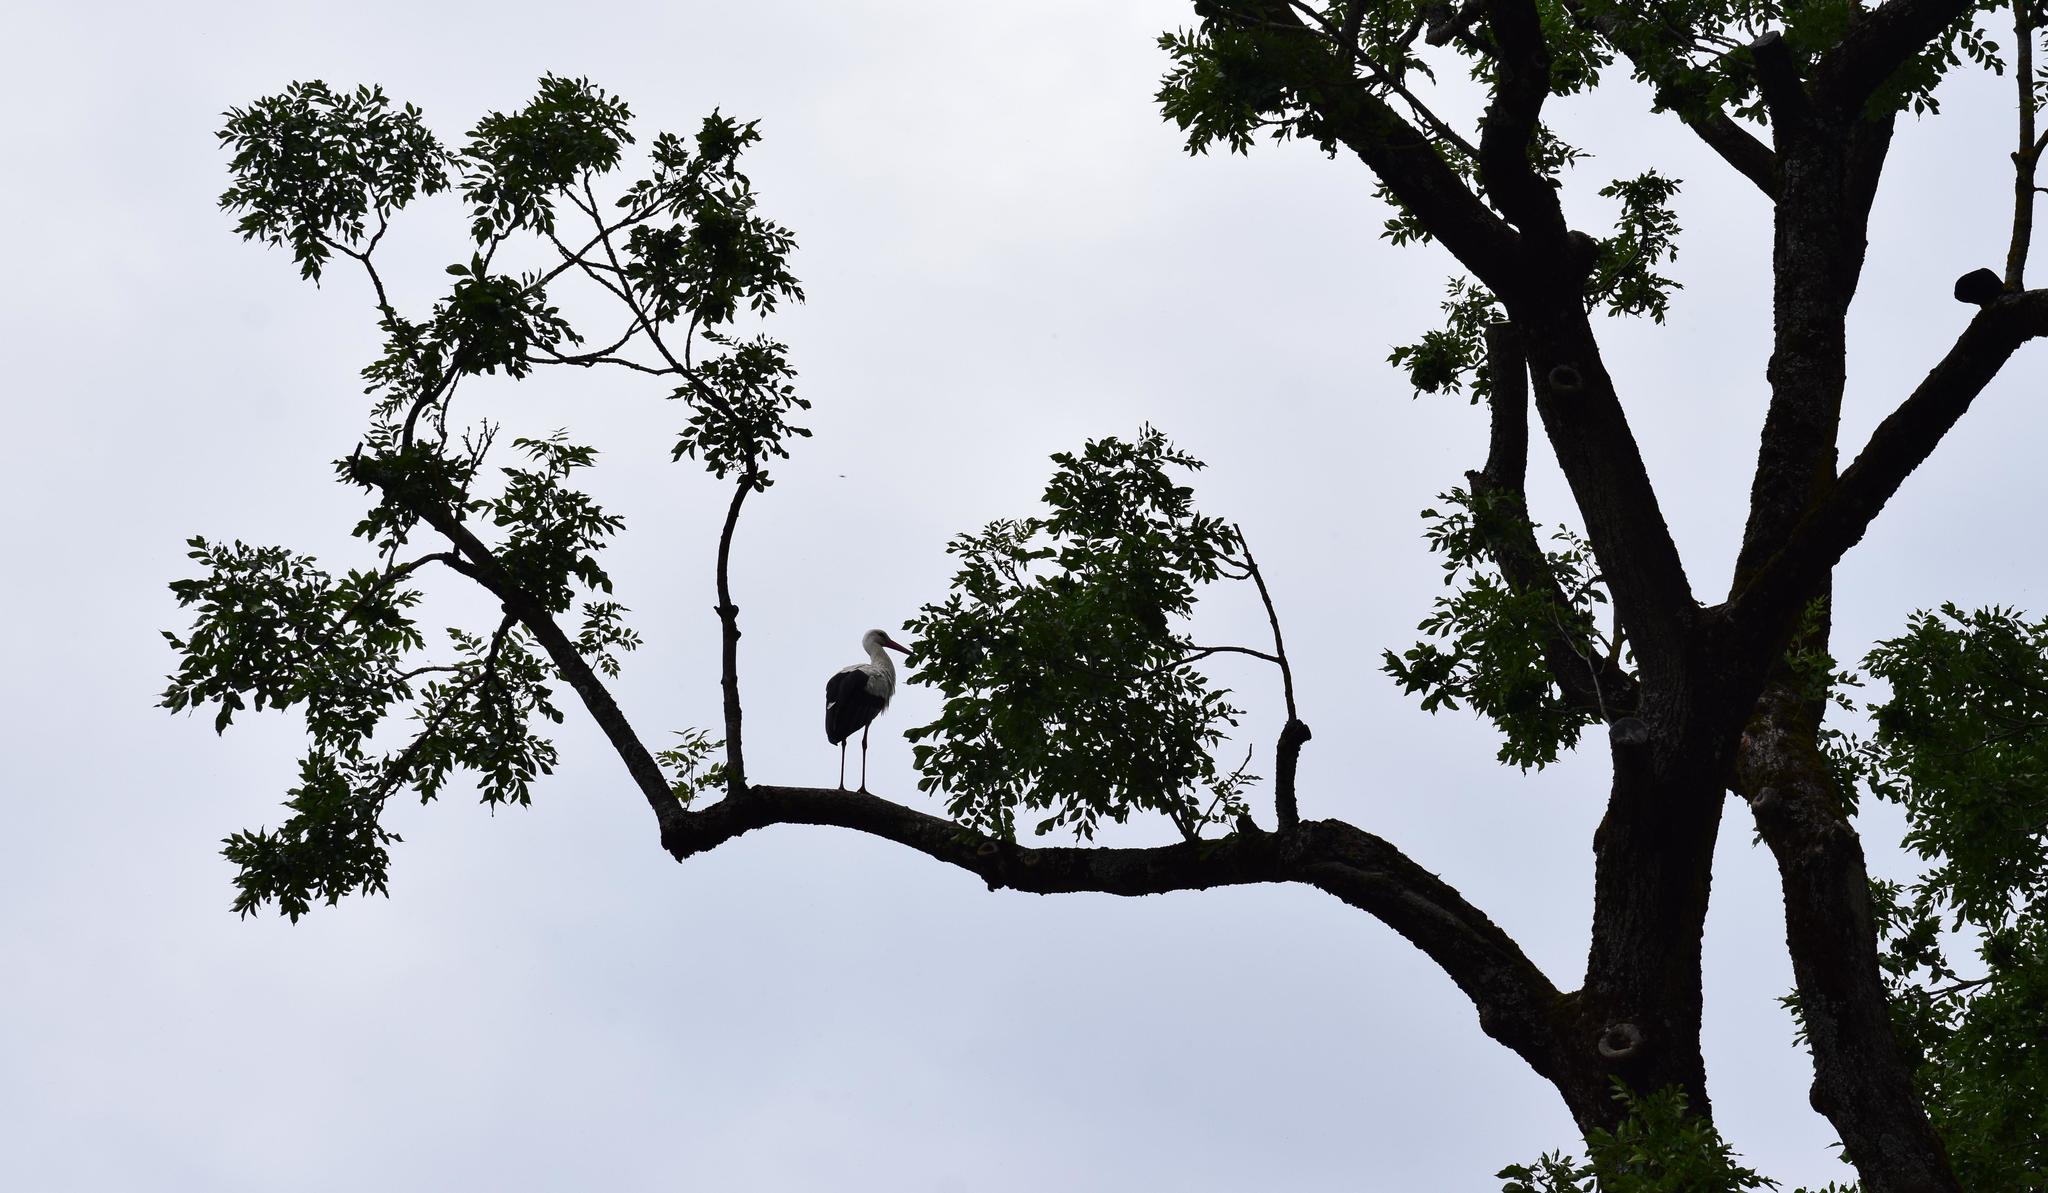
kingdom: Animalia
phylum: Chordata
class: Aves
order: Ciconiiformes
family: Ciconiidae
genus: Ciconia
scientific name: Ciconia ciconia
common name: White stork
